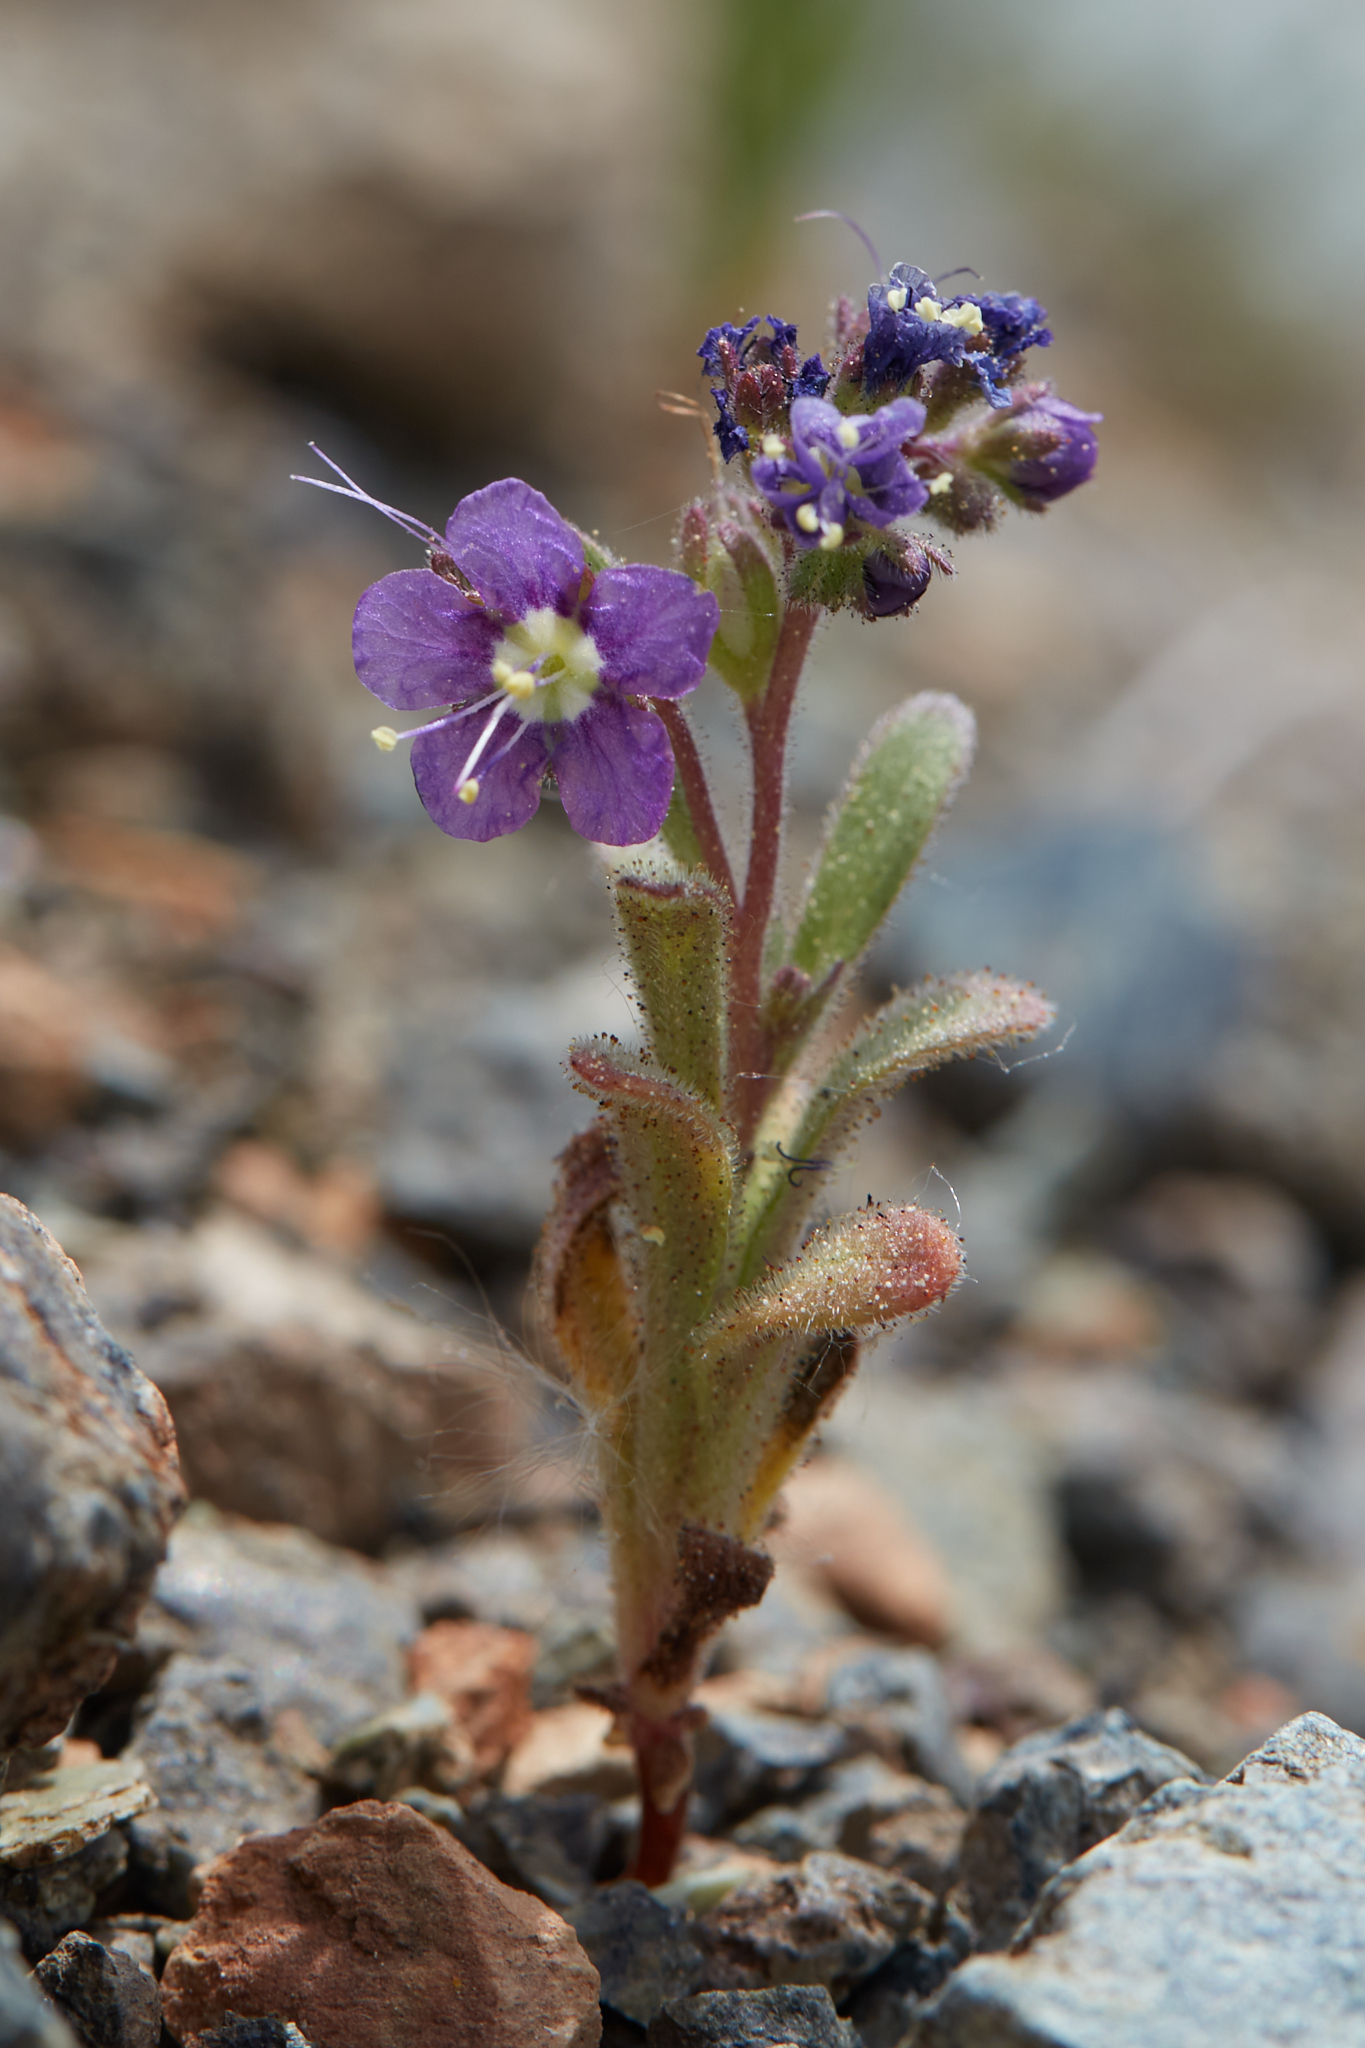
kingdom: Plantae
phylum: Tracheophyta
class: Magnoliopsida
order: Boraginales
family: Hydrophyllaceae
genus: Phacelia
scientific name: Phacelia greenei
